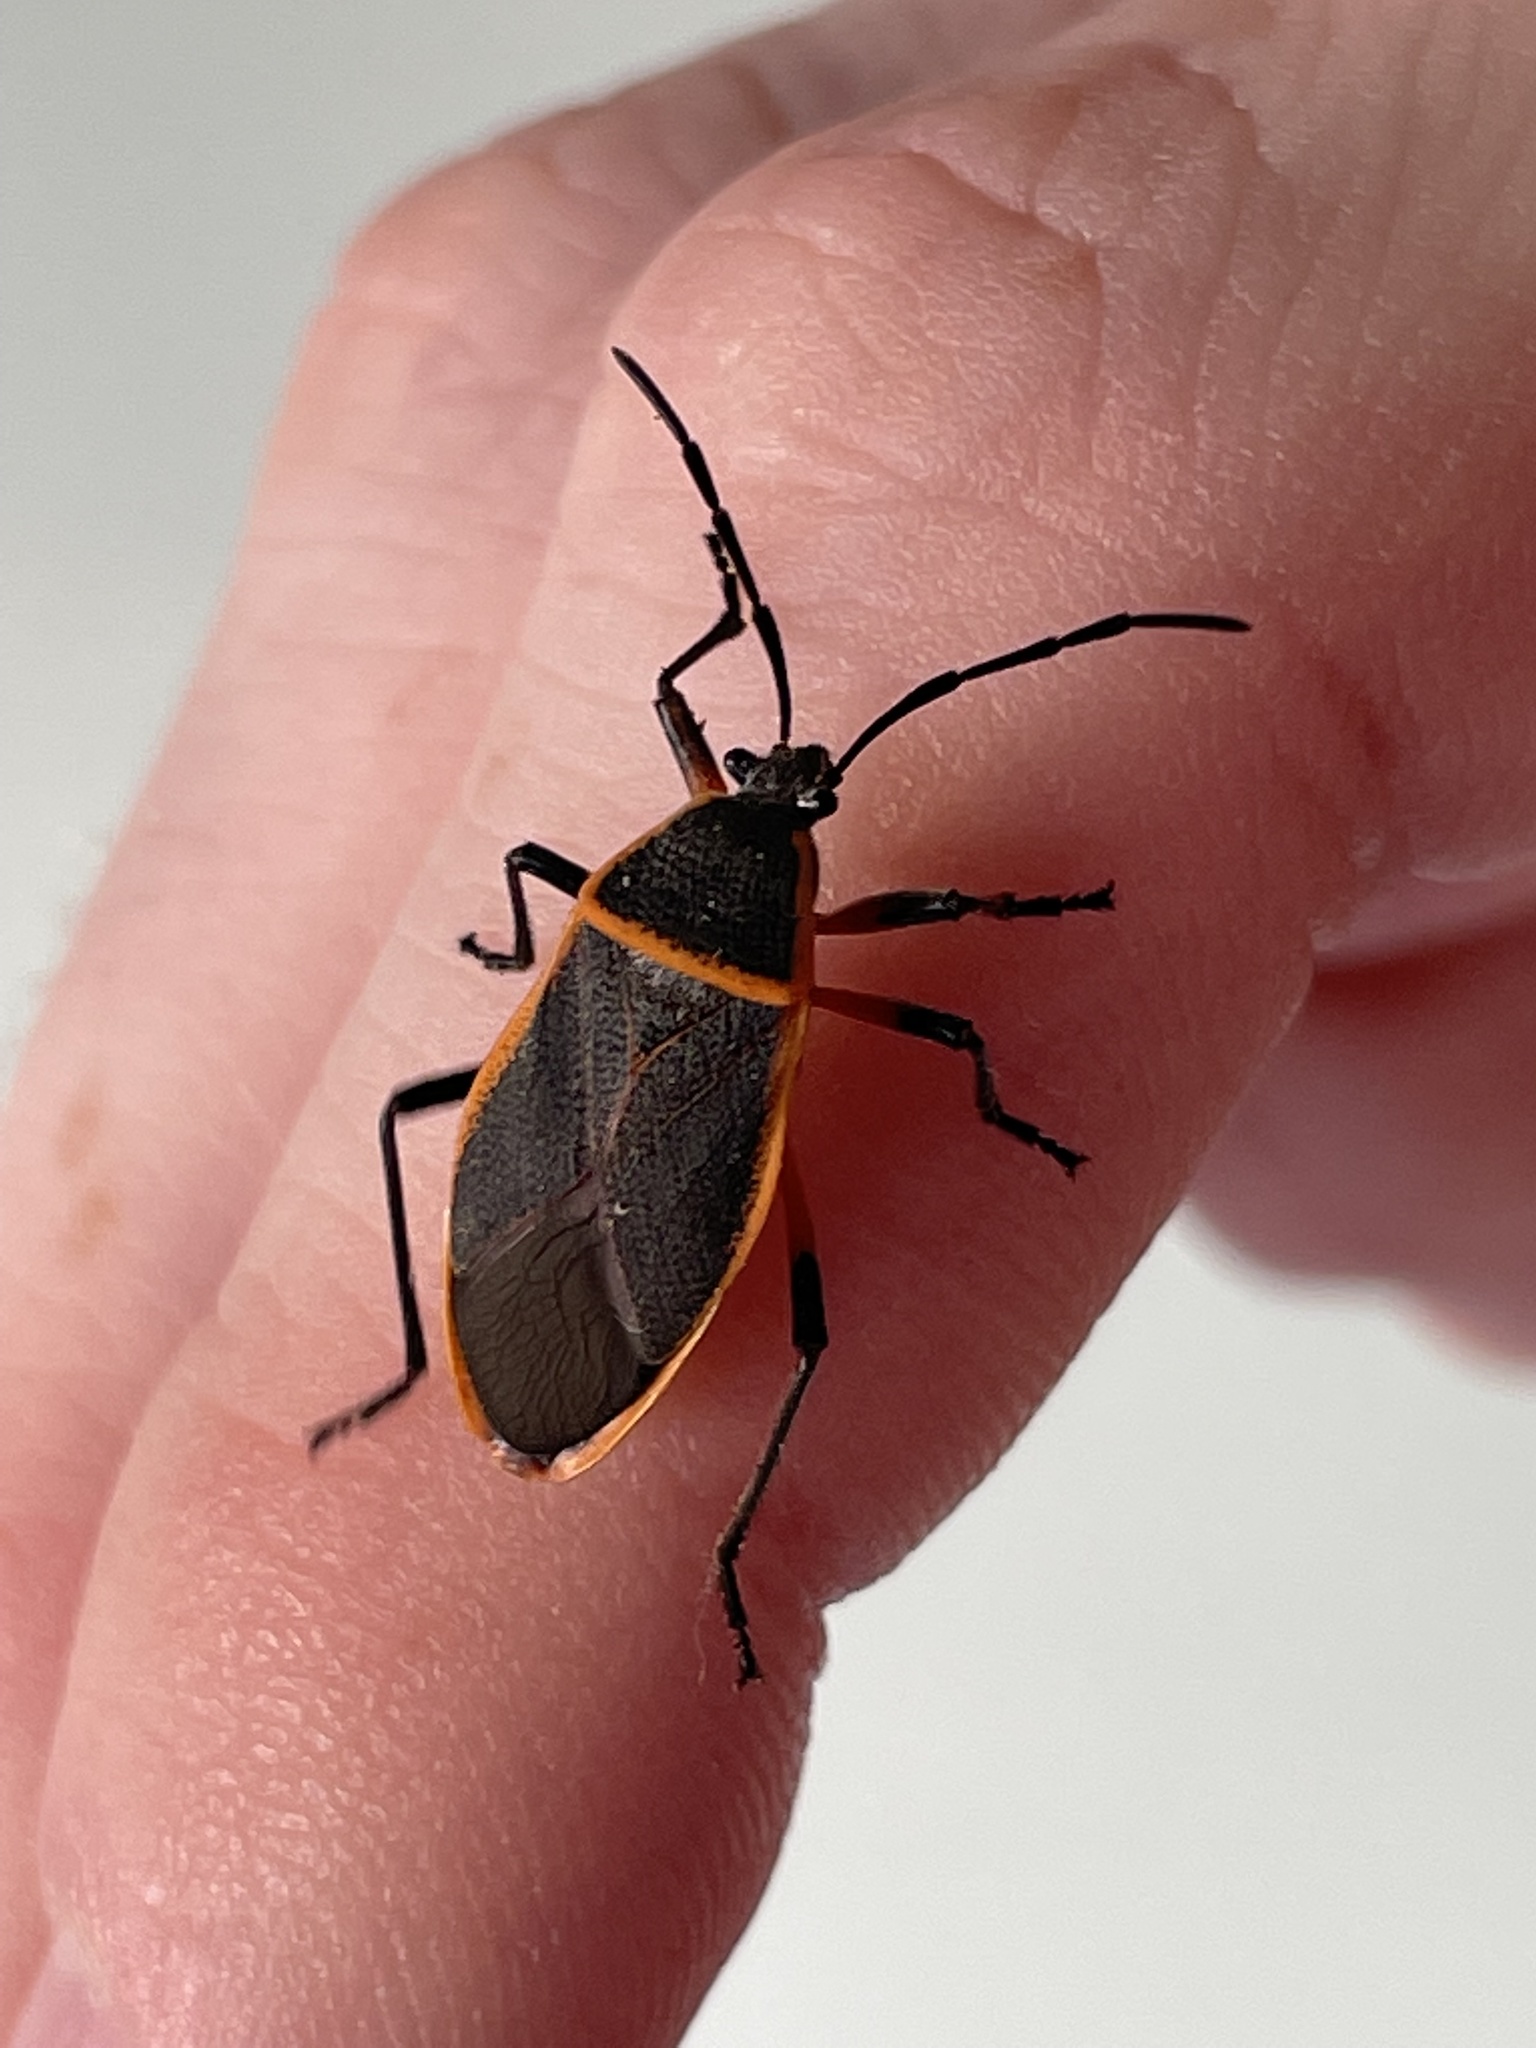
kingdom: Animalia
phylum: Arthropoda
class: Insecta
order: Hemiptera
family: Largidae
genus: Largus
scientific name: Largus succinctus
